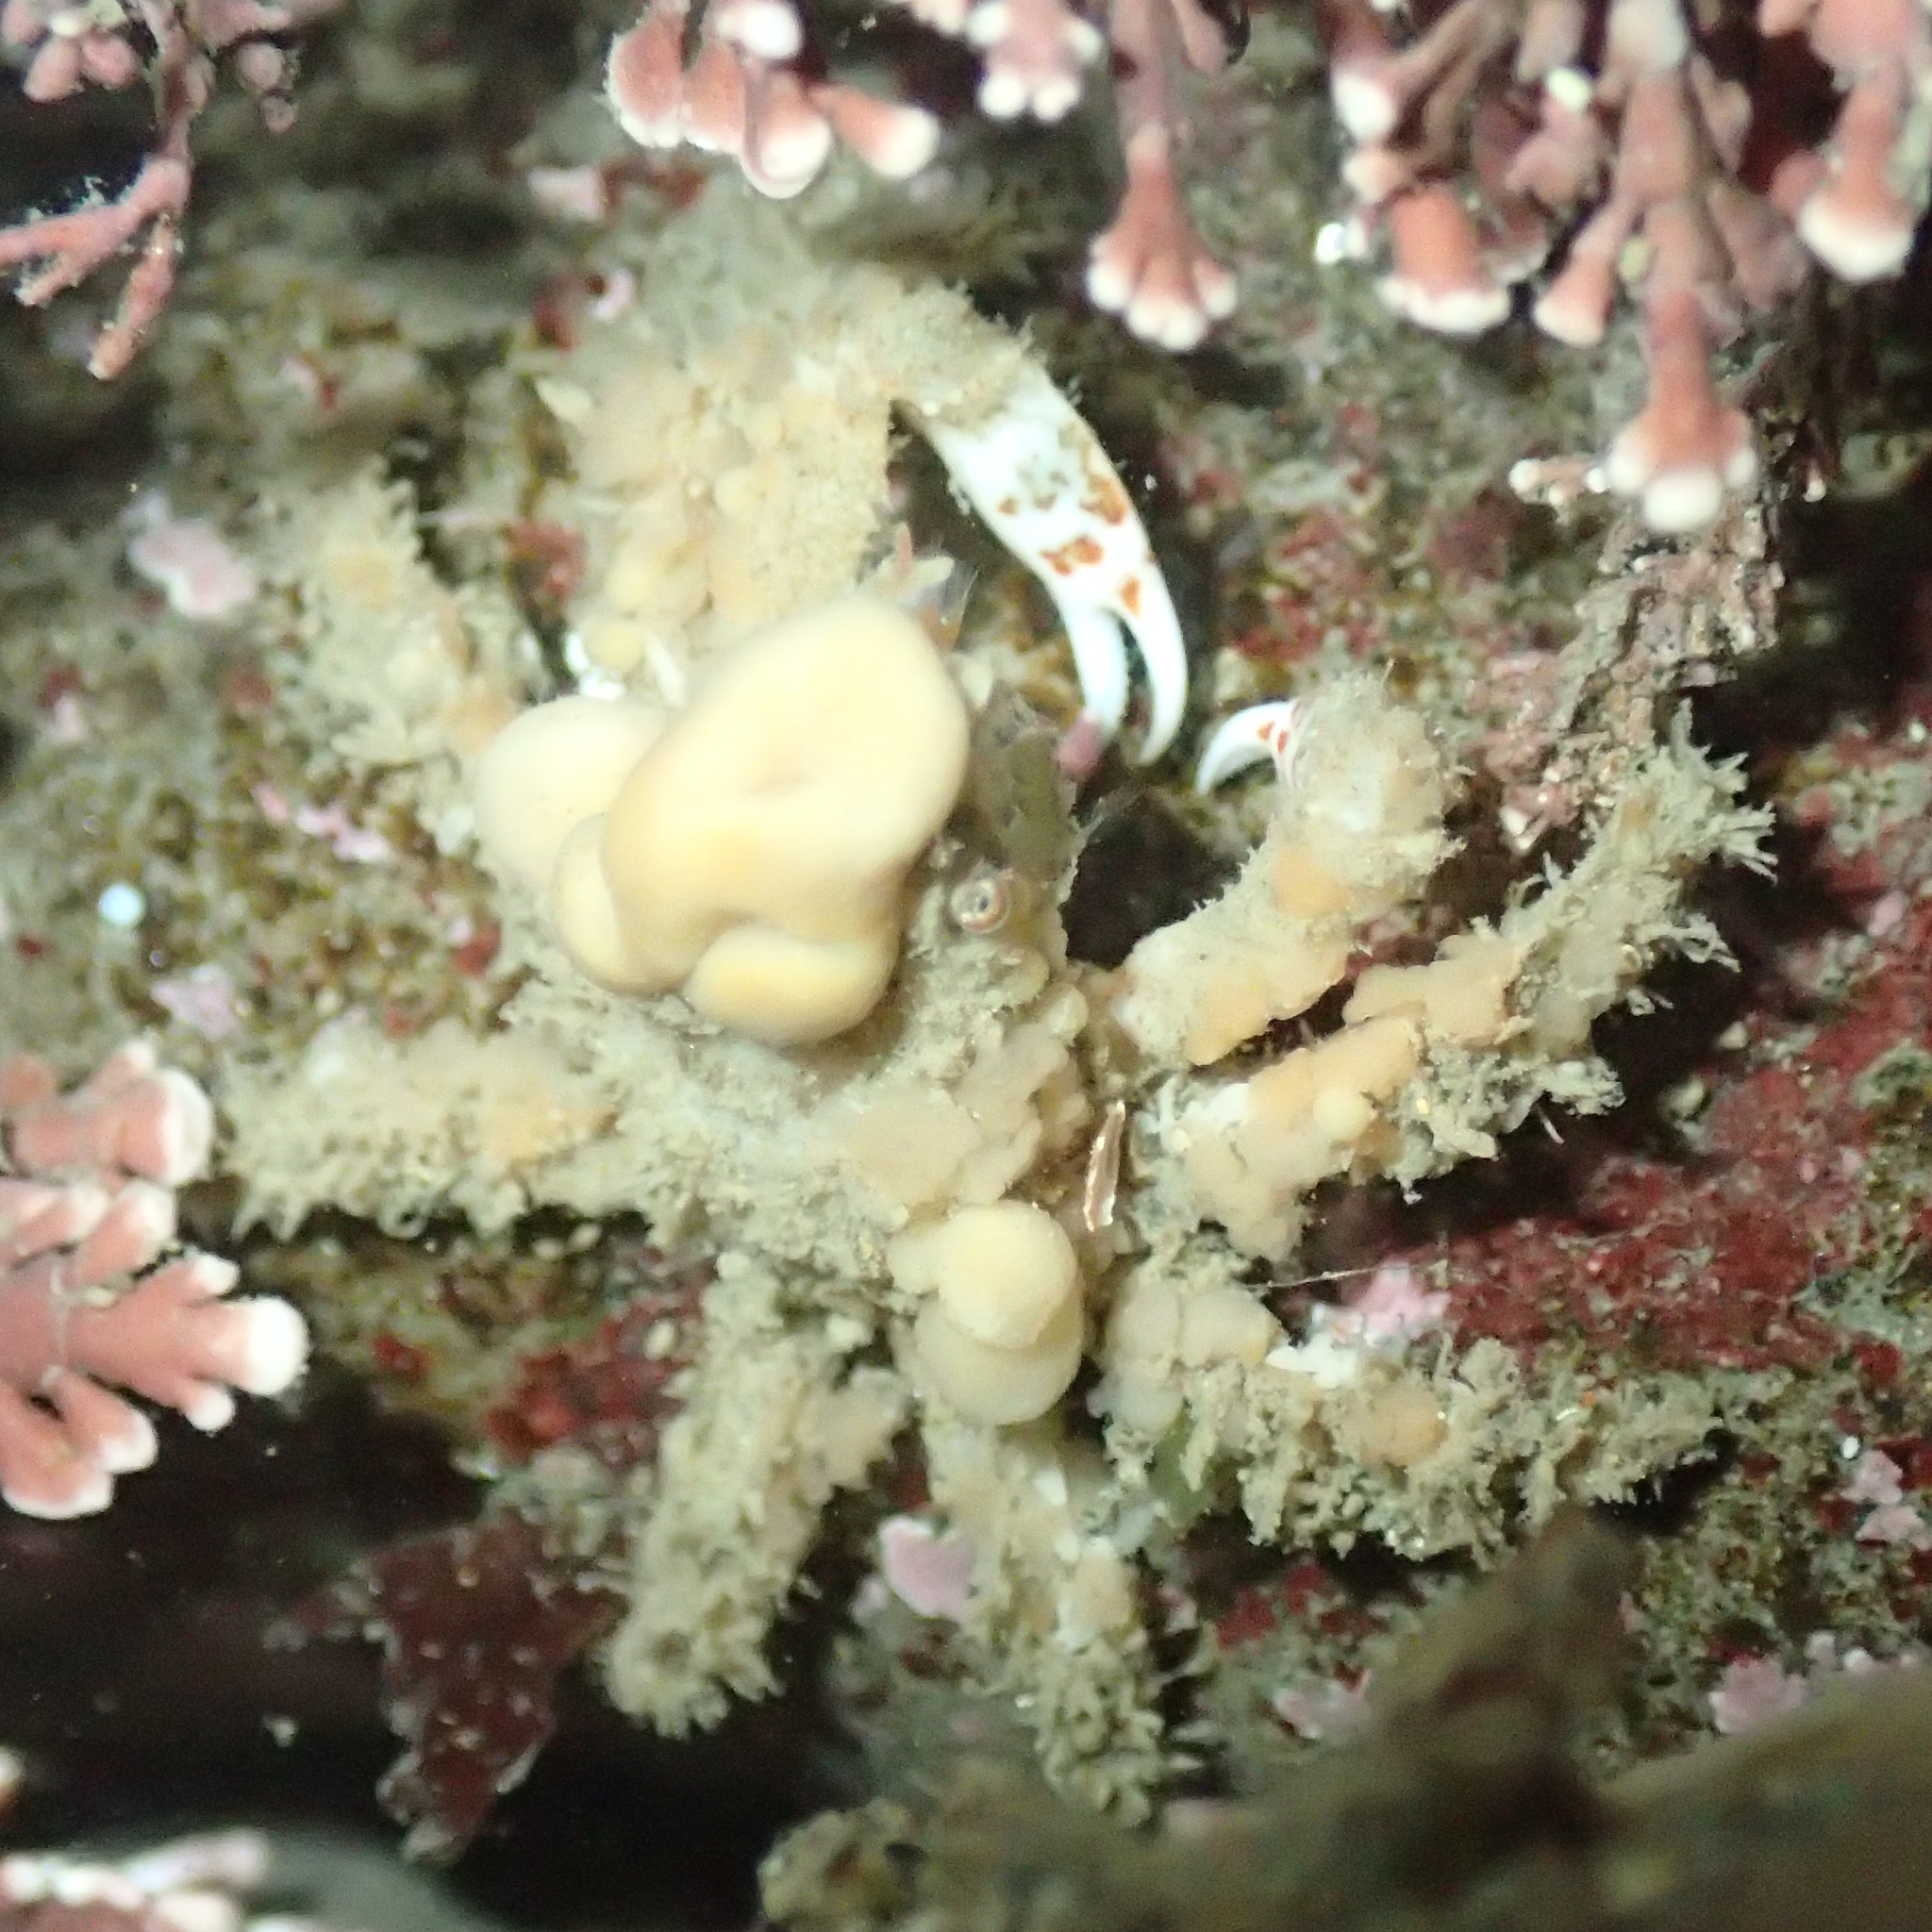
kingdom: Animalia
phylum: Arthropoda
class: Malacostraca
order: Decapoda
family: Epialtidae
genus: Scyra
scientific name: Scyra acutifrons
